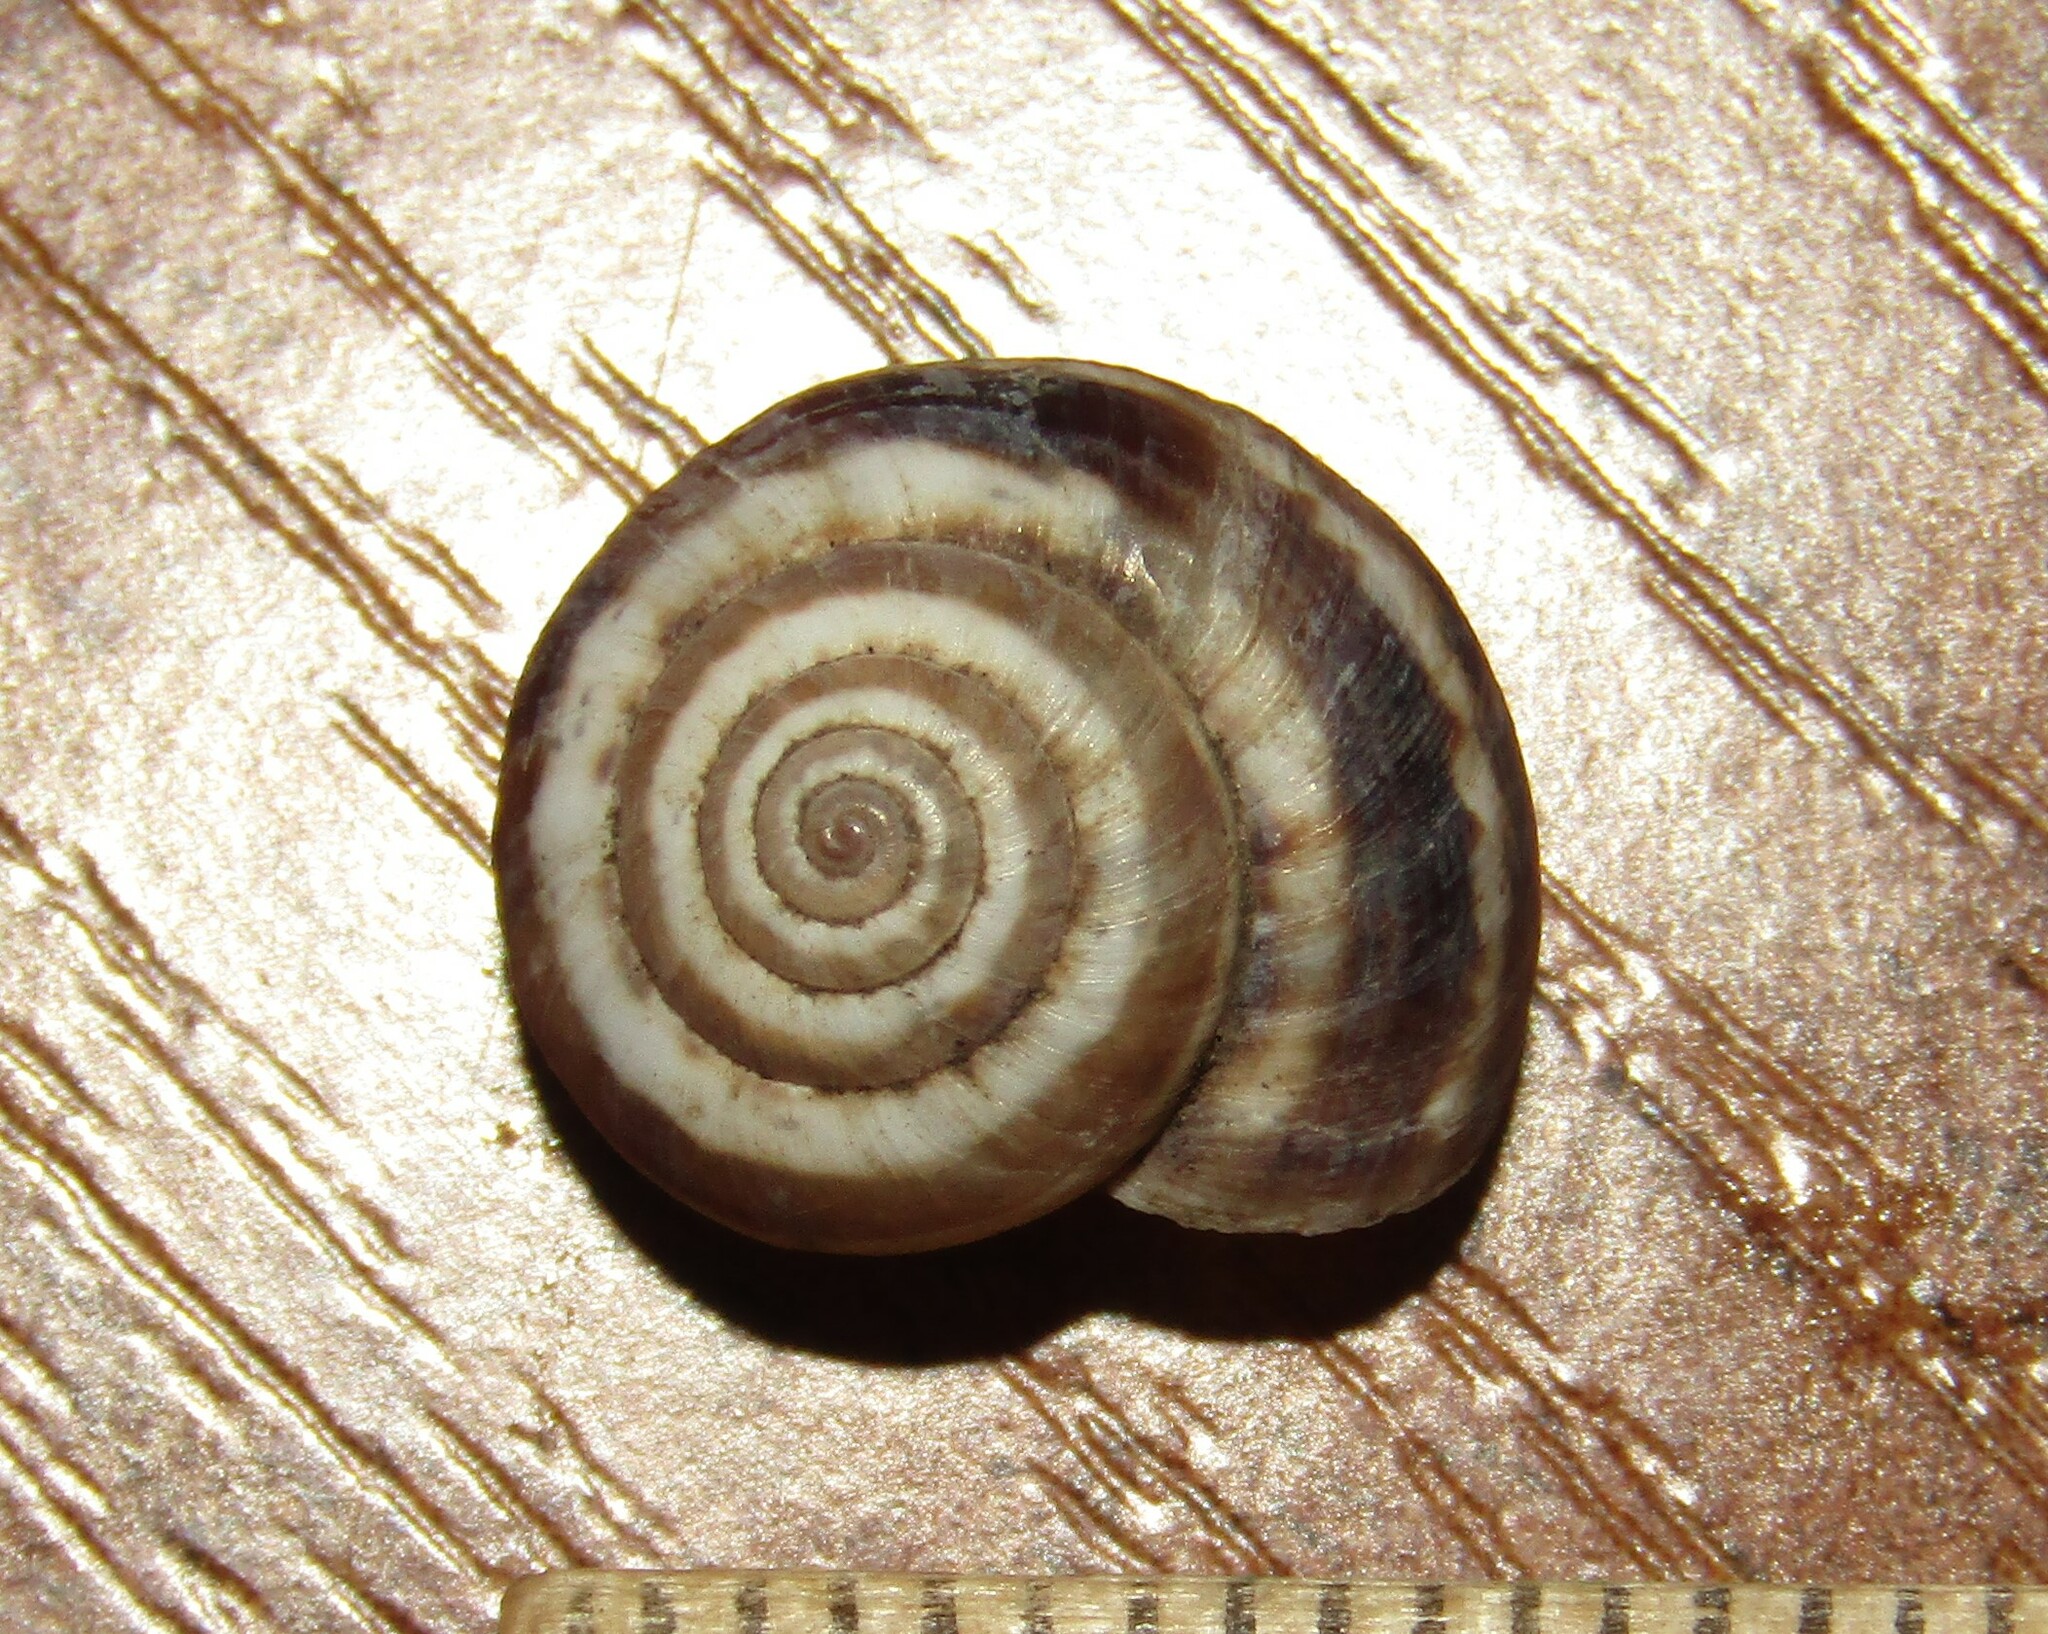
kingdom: Animalia
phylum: Mollusca
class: Gastropoda
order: Stylommatophora
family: Geomitridae
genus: Xeropicta
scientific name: Xeropicta derbentina
